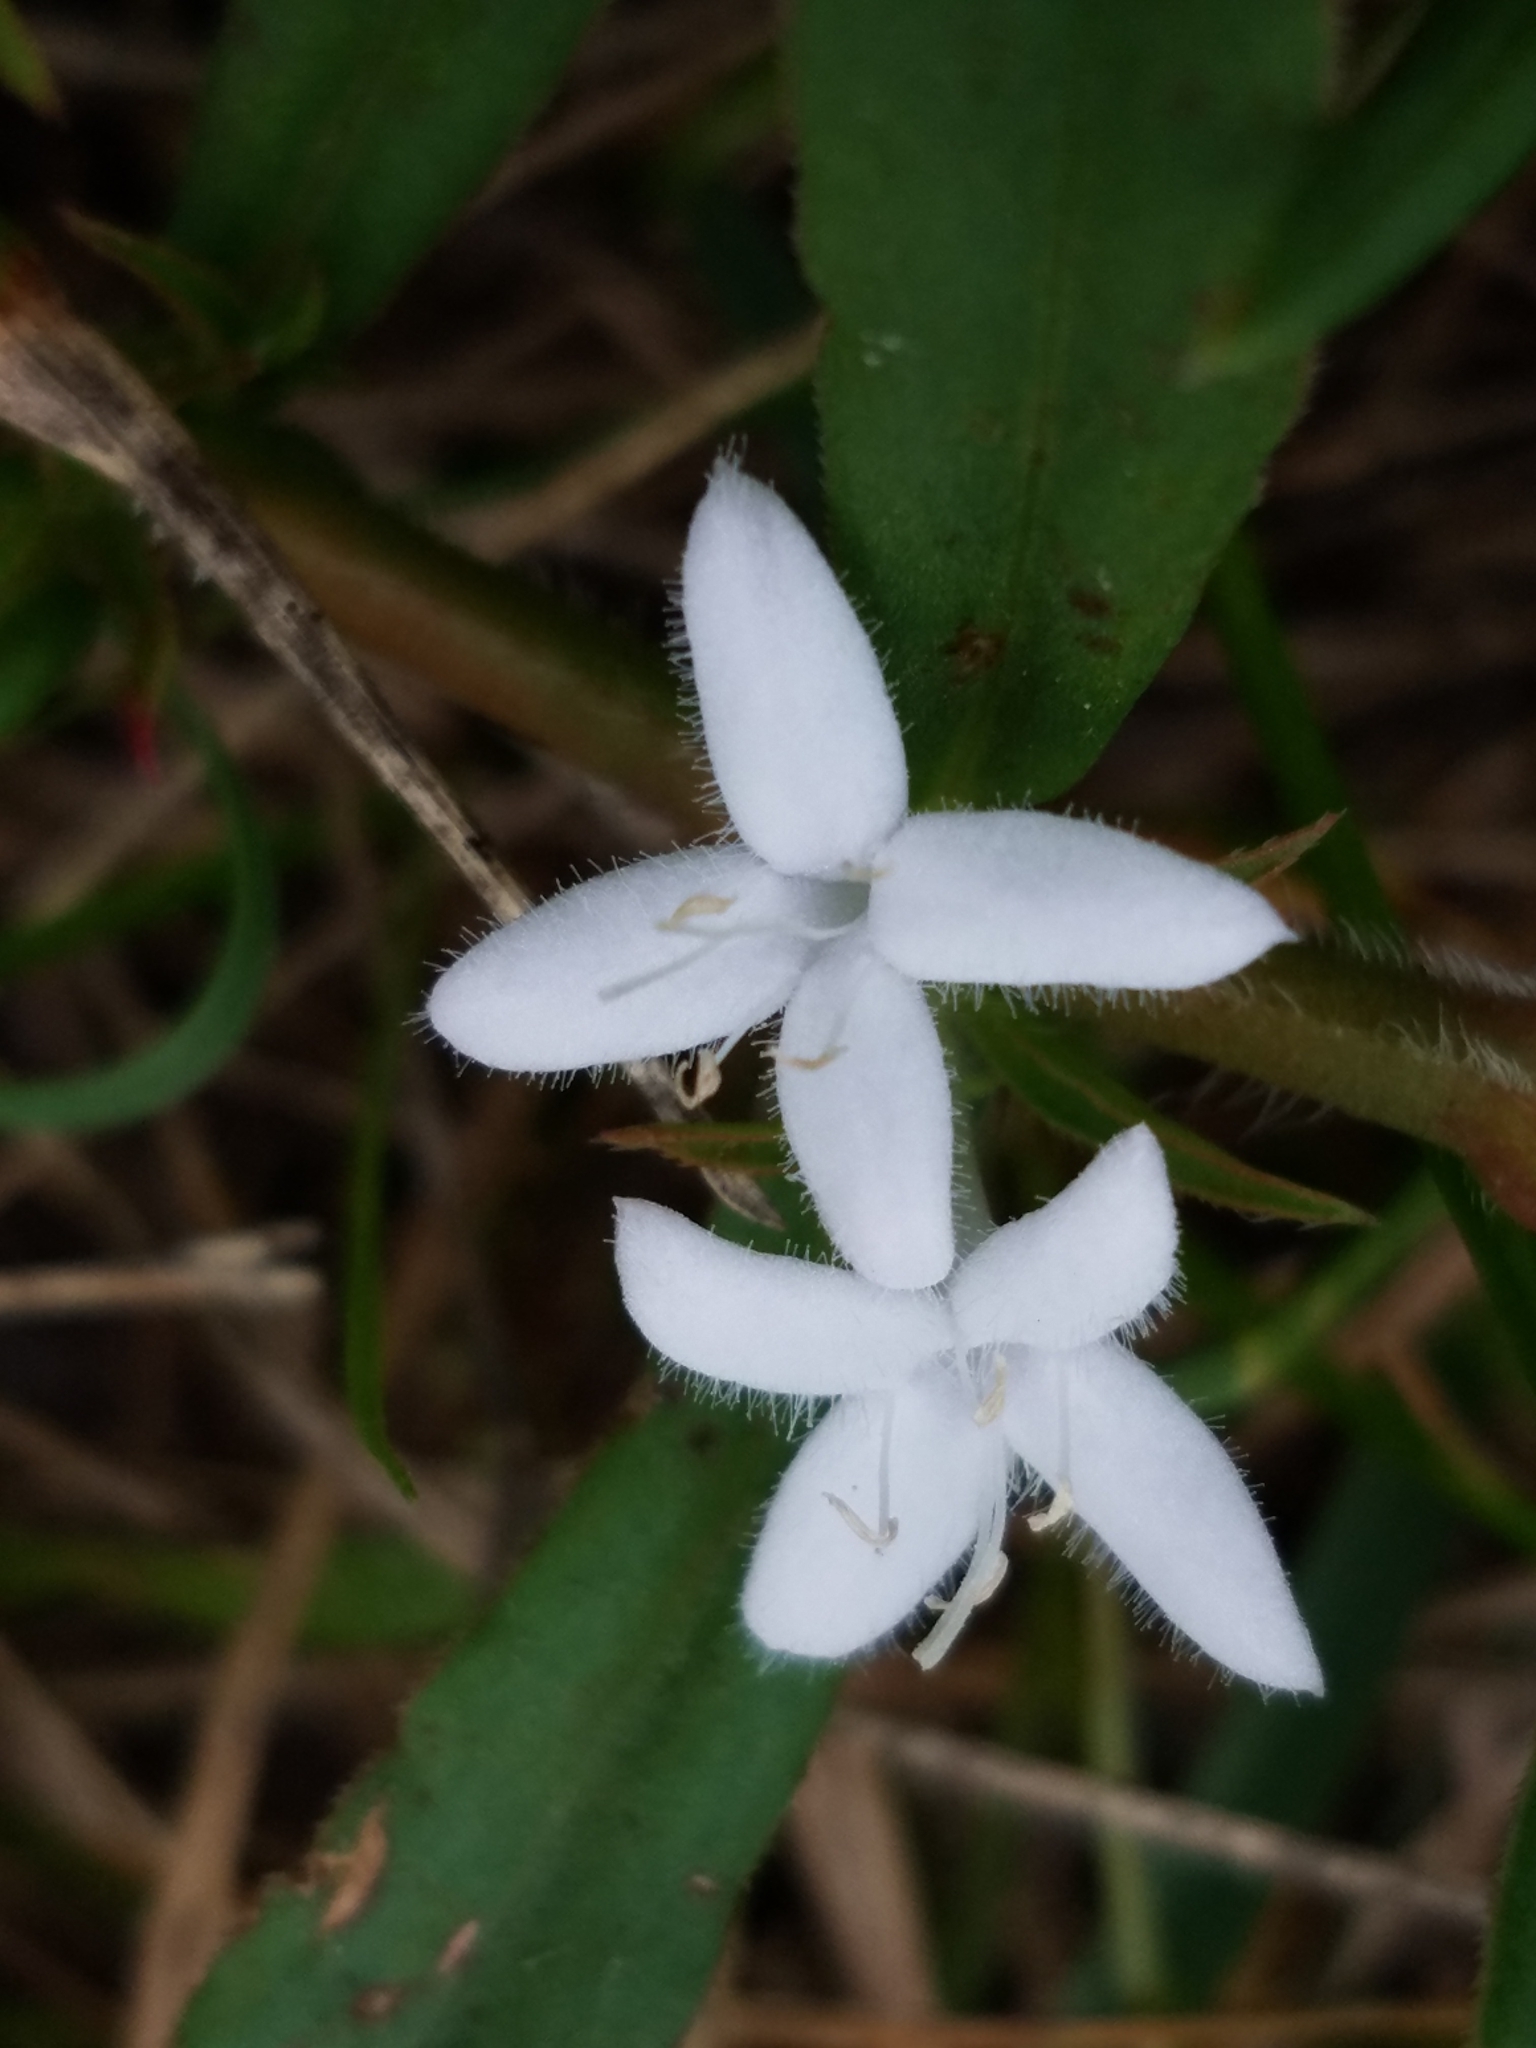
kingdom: Plantae
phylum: Tracheophyta
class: Magnoliopsida
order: Gentianales
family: Rubiaceae
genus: Diodia
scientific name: Diodia virginiana
